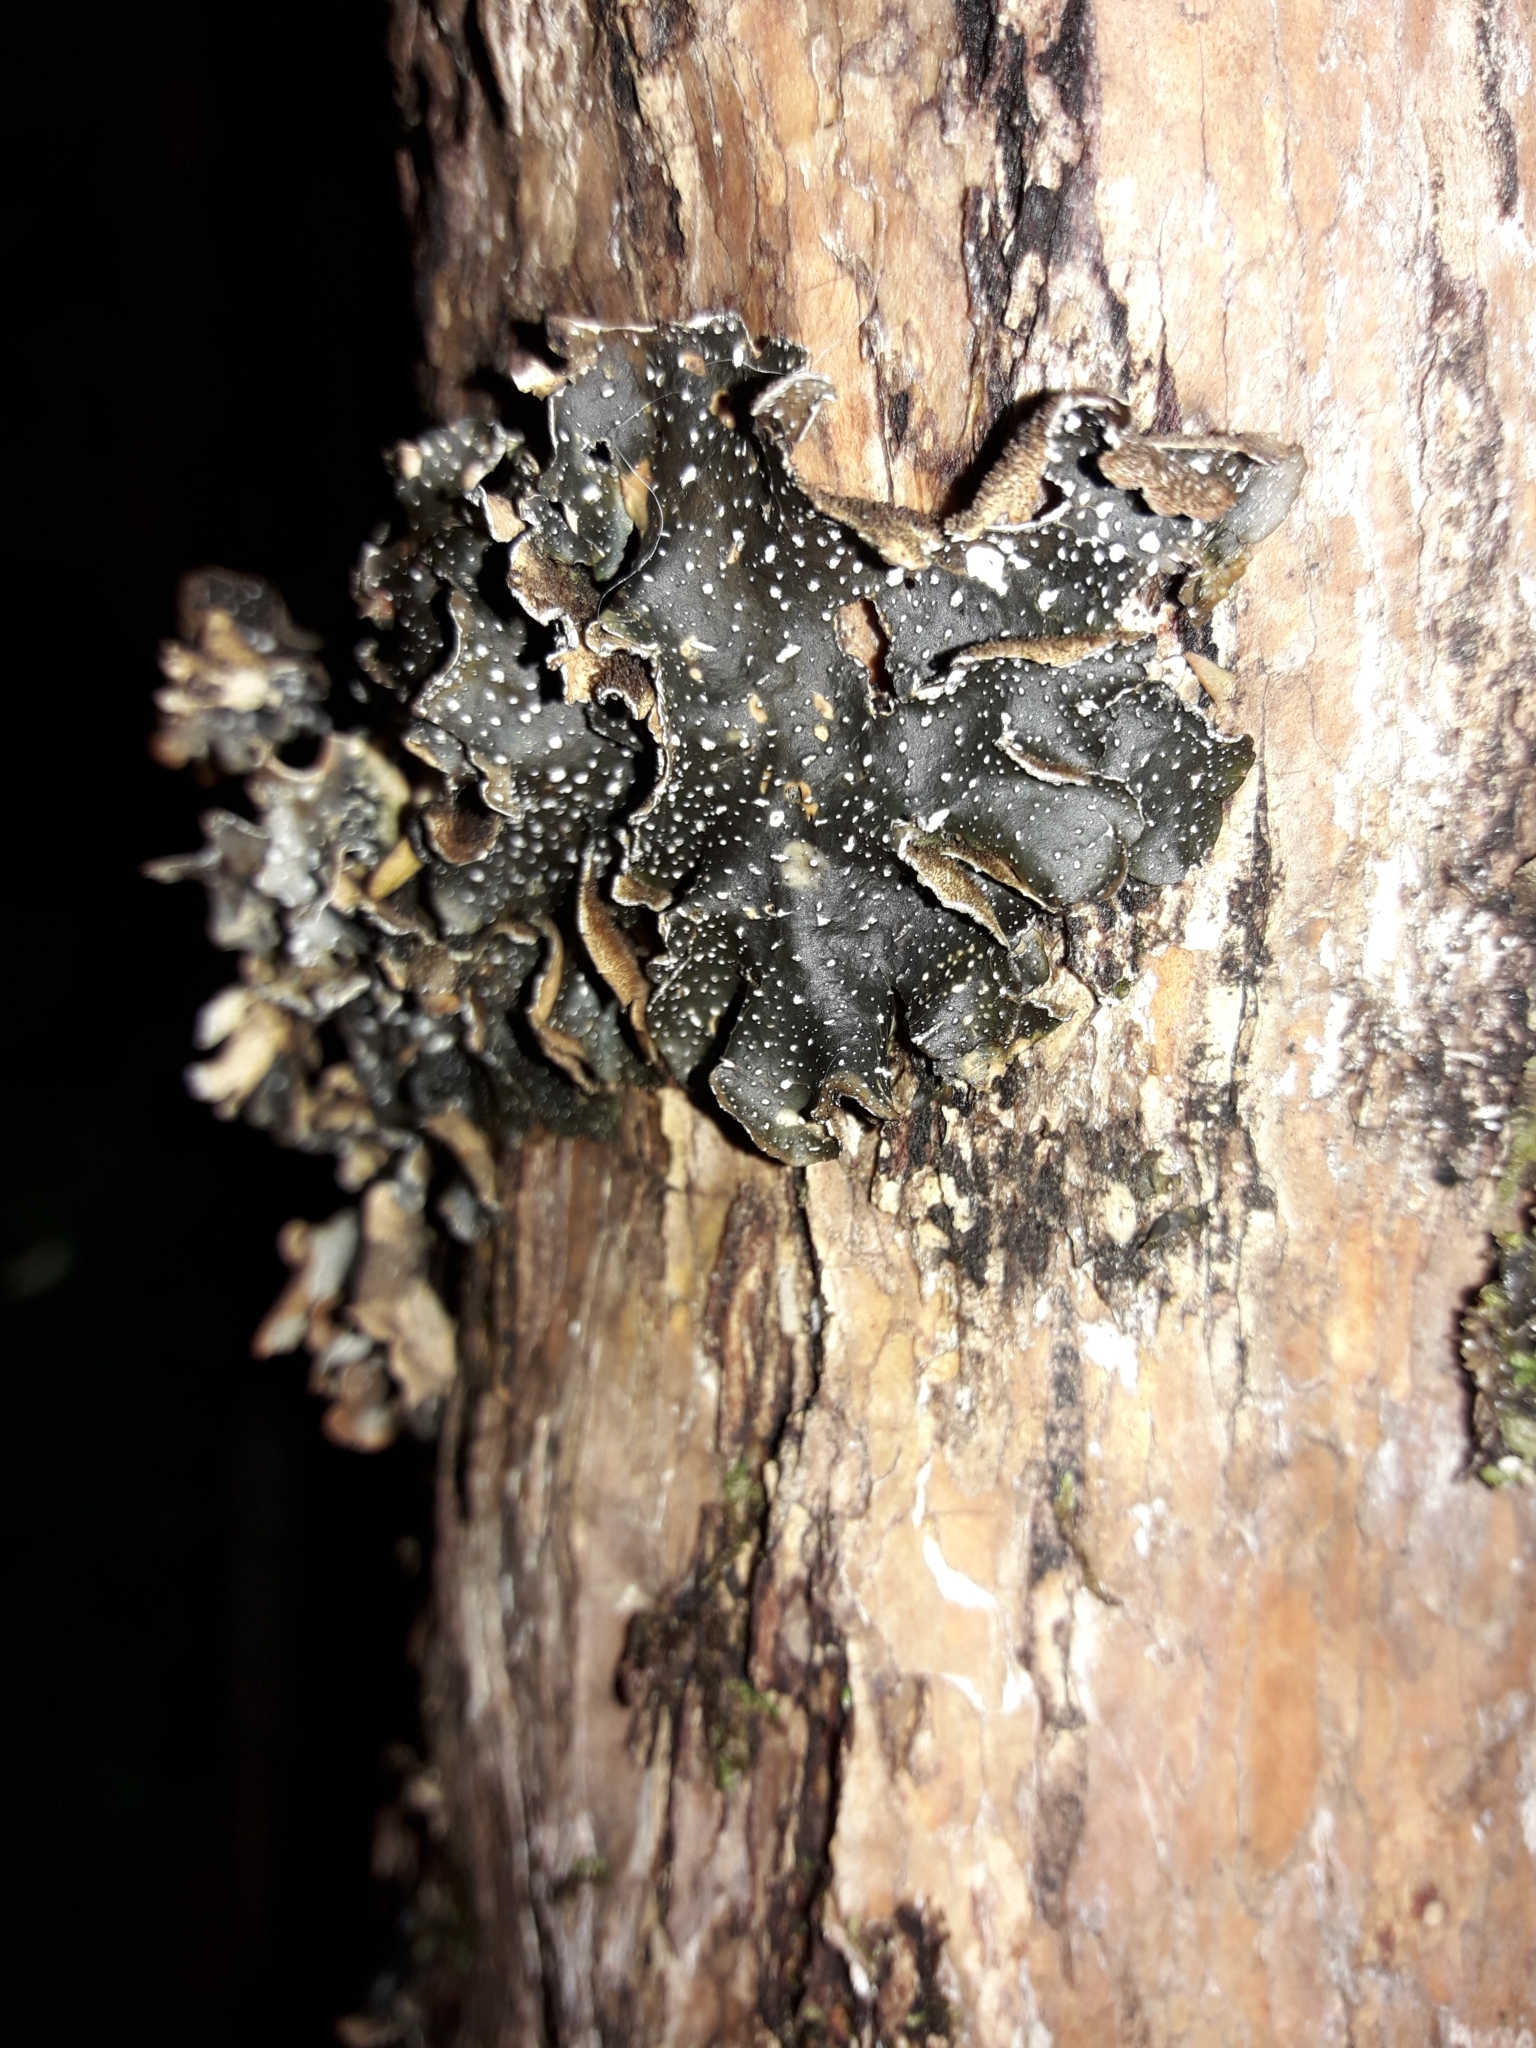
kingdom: Fungi
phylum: Ascomycota
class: Lecanoromycetes
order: Peltigerales
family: Lobariaceae
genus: Pseudocyphellaria
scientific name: Pseudocyphellaria intricata
